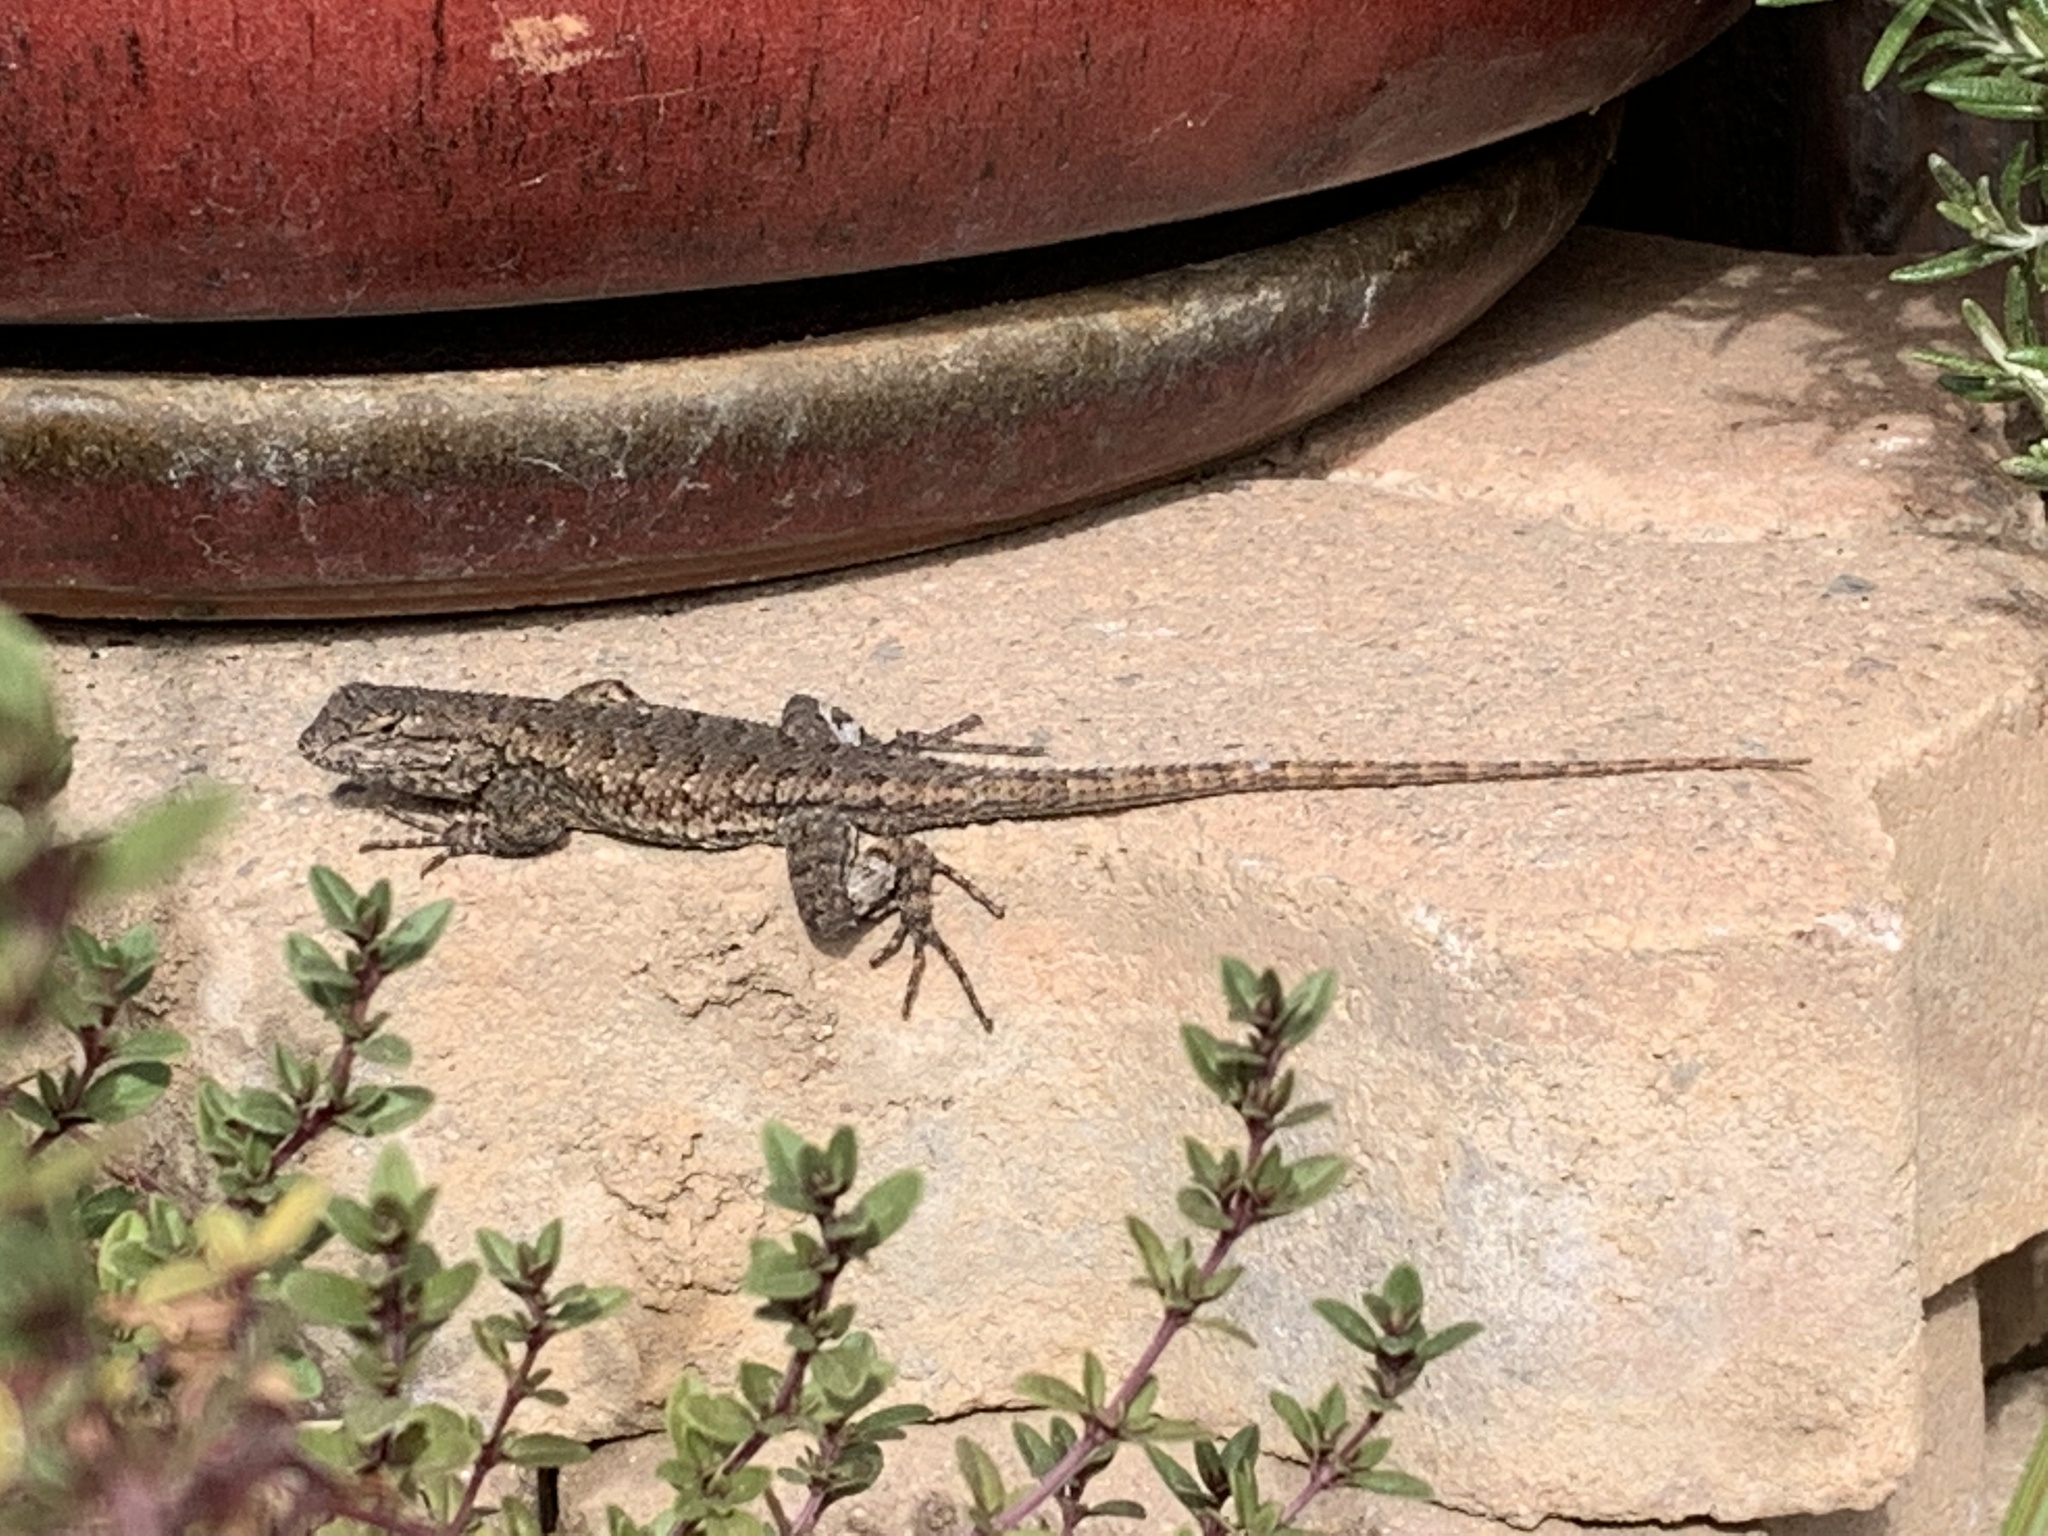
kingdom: Animalia
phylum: Chordata
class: Squamata
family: Phrynosomatidae
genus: Sceloporus
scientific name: Sceloporus occidentalis
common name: Western fence lizard
